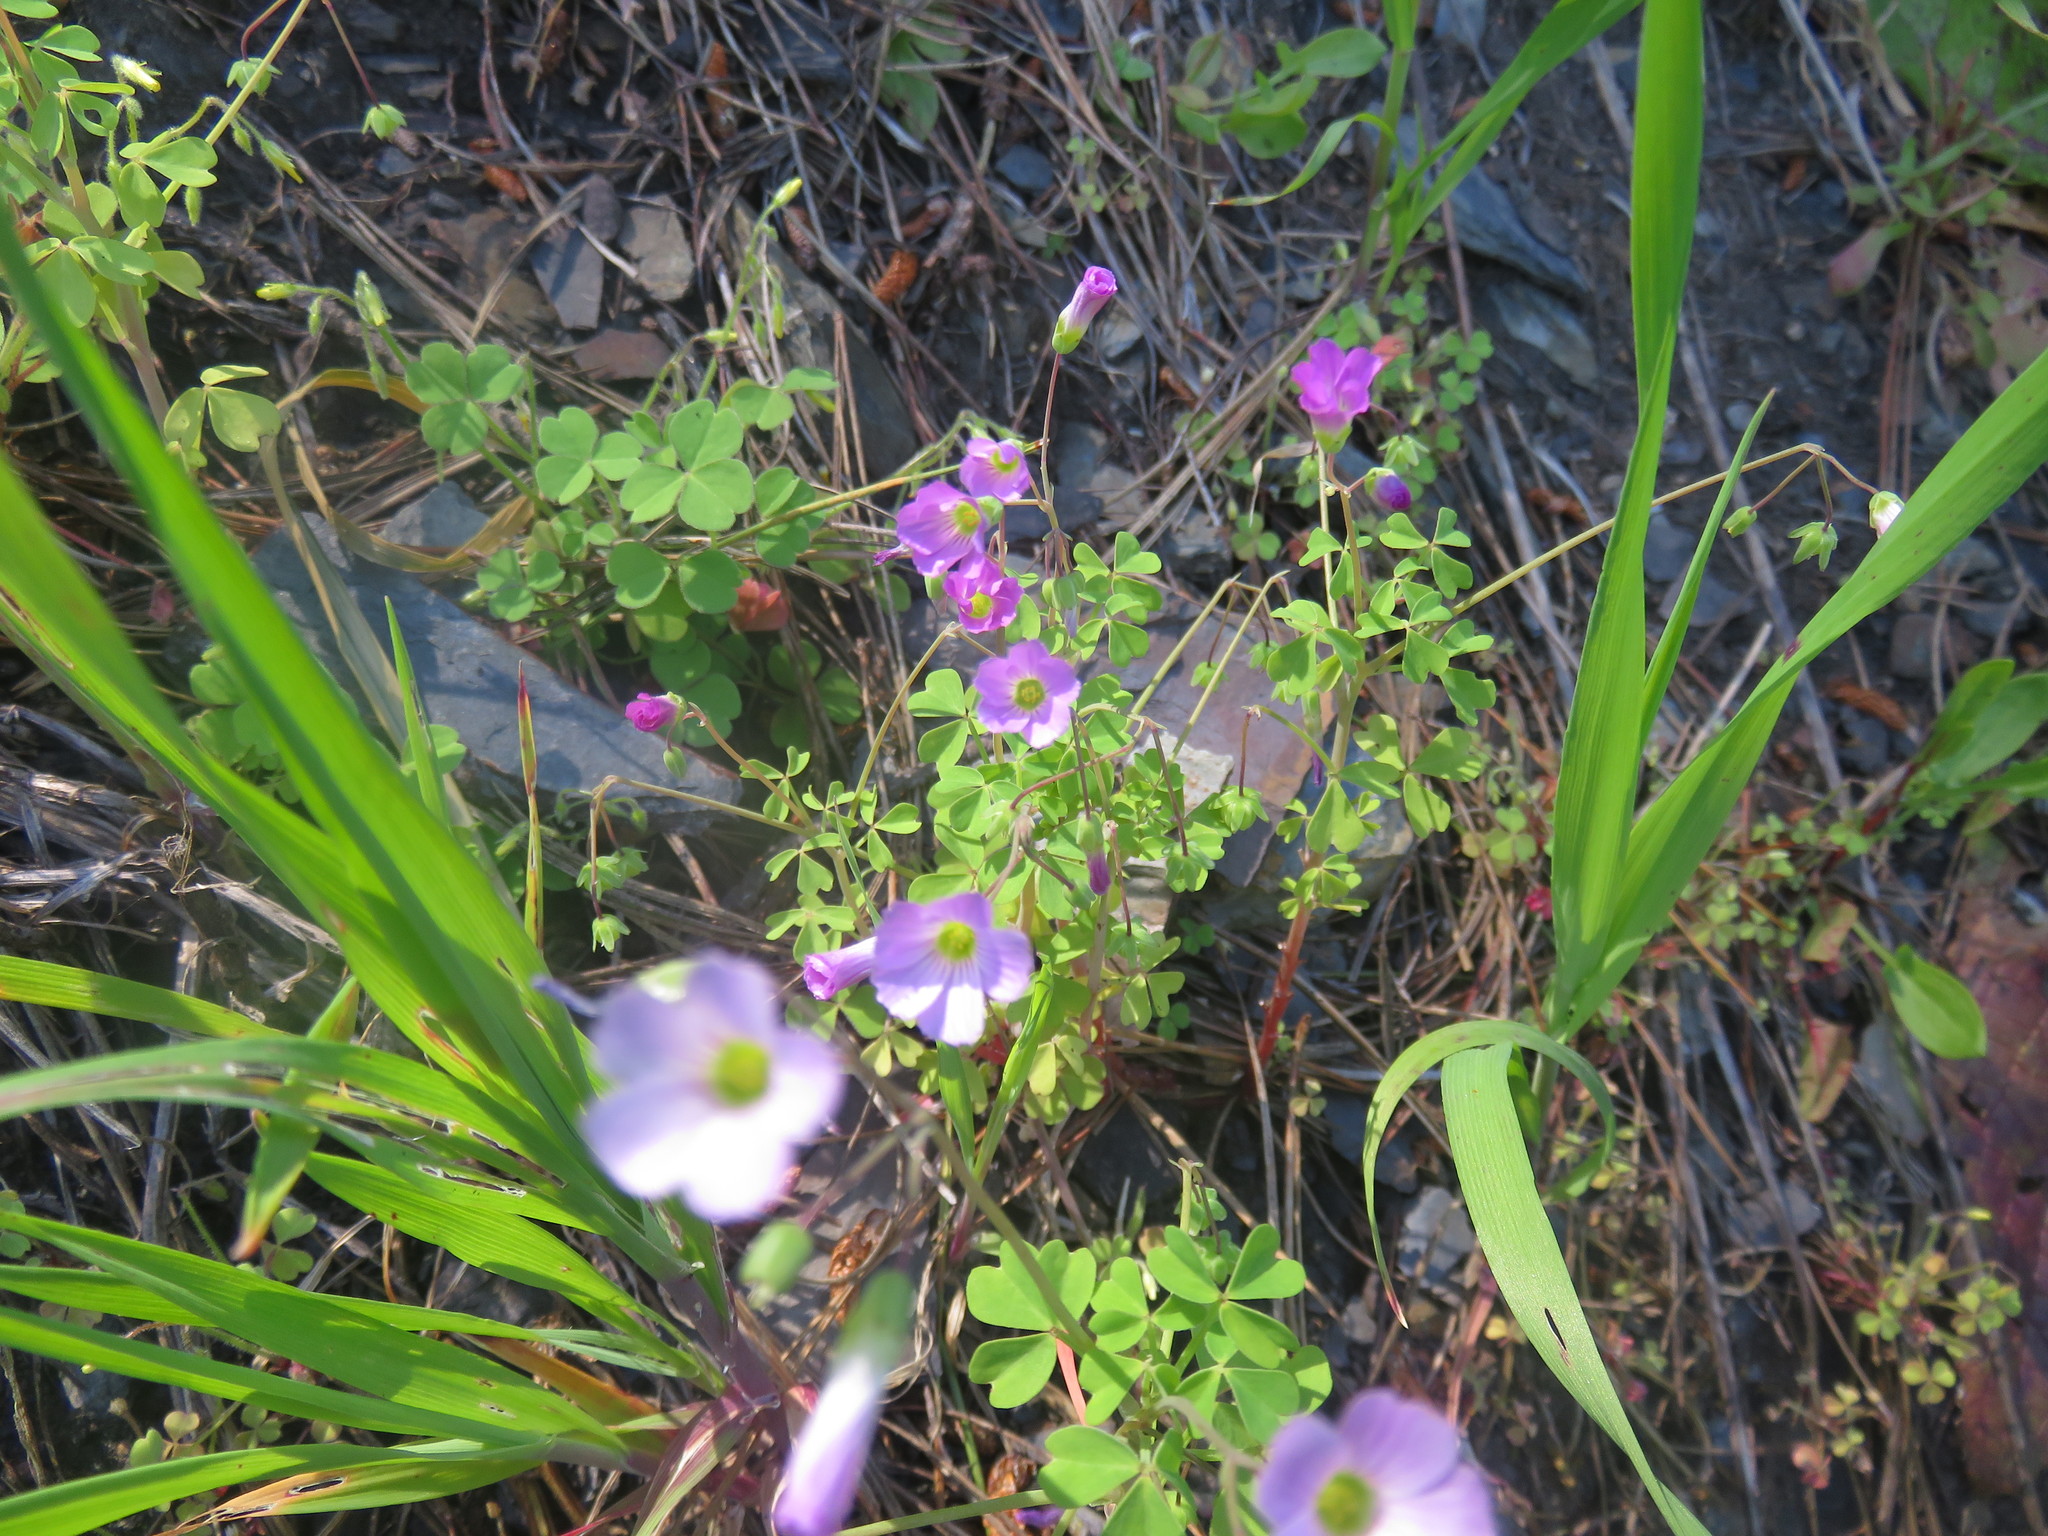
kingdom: Plantae
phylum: Tracheophyta
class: Magnoliopsida
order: Oxalidales
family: Oxalidaceae
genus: Oxalis
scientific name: Oxalis rosea
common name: Annual pink-sorrel
